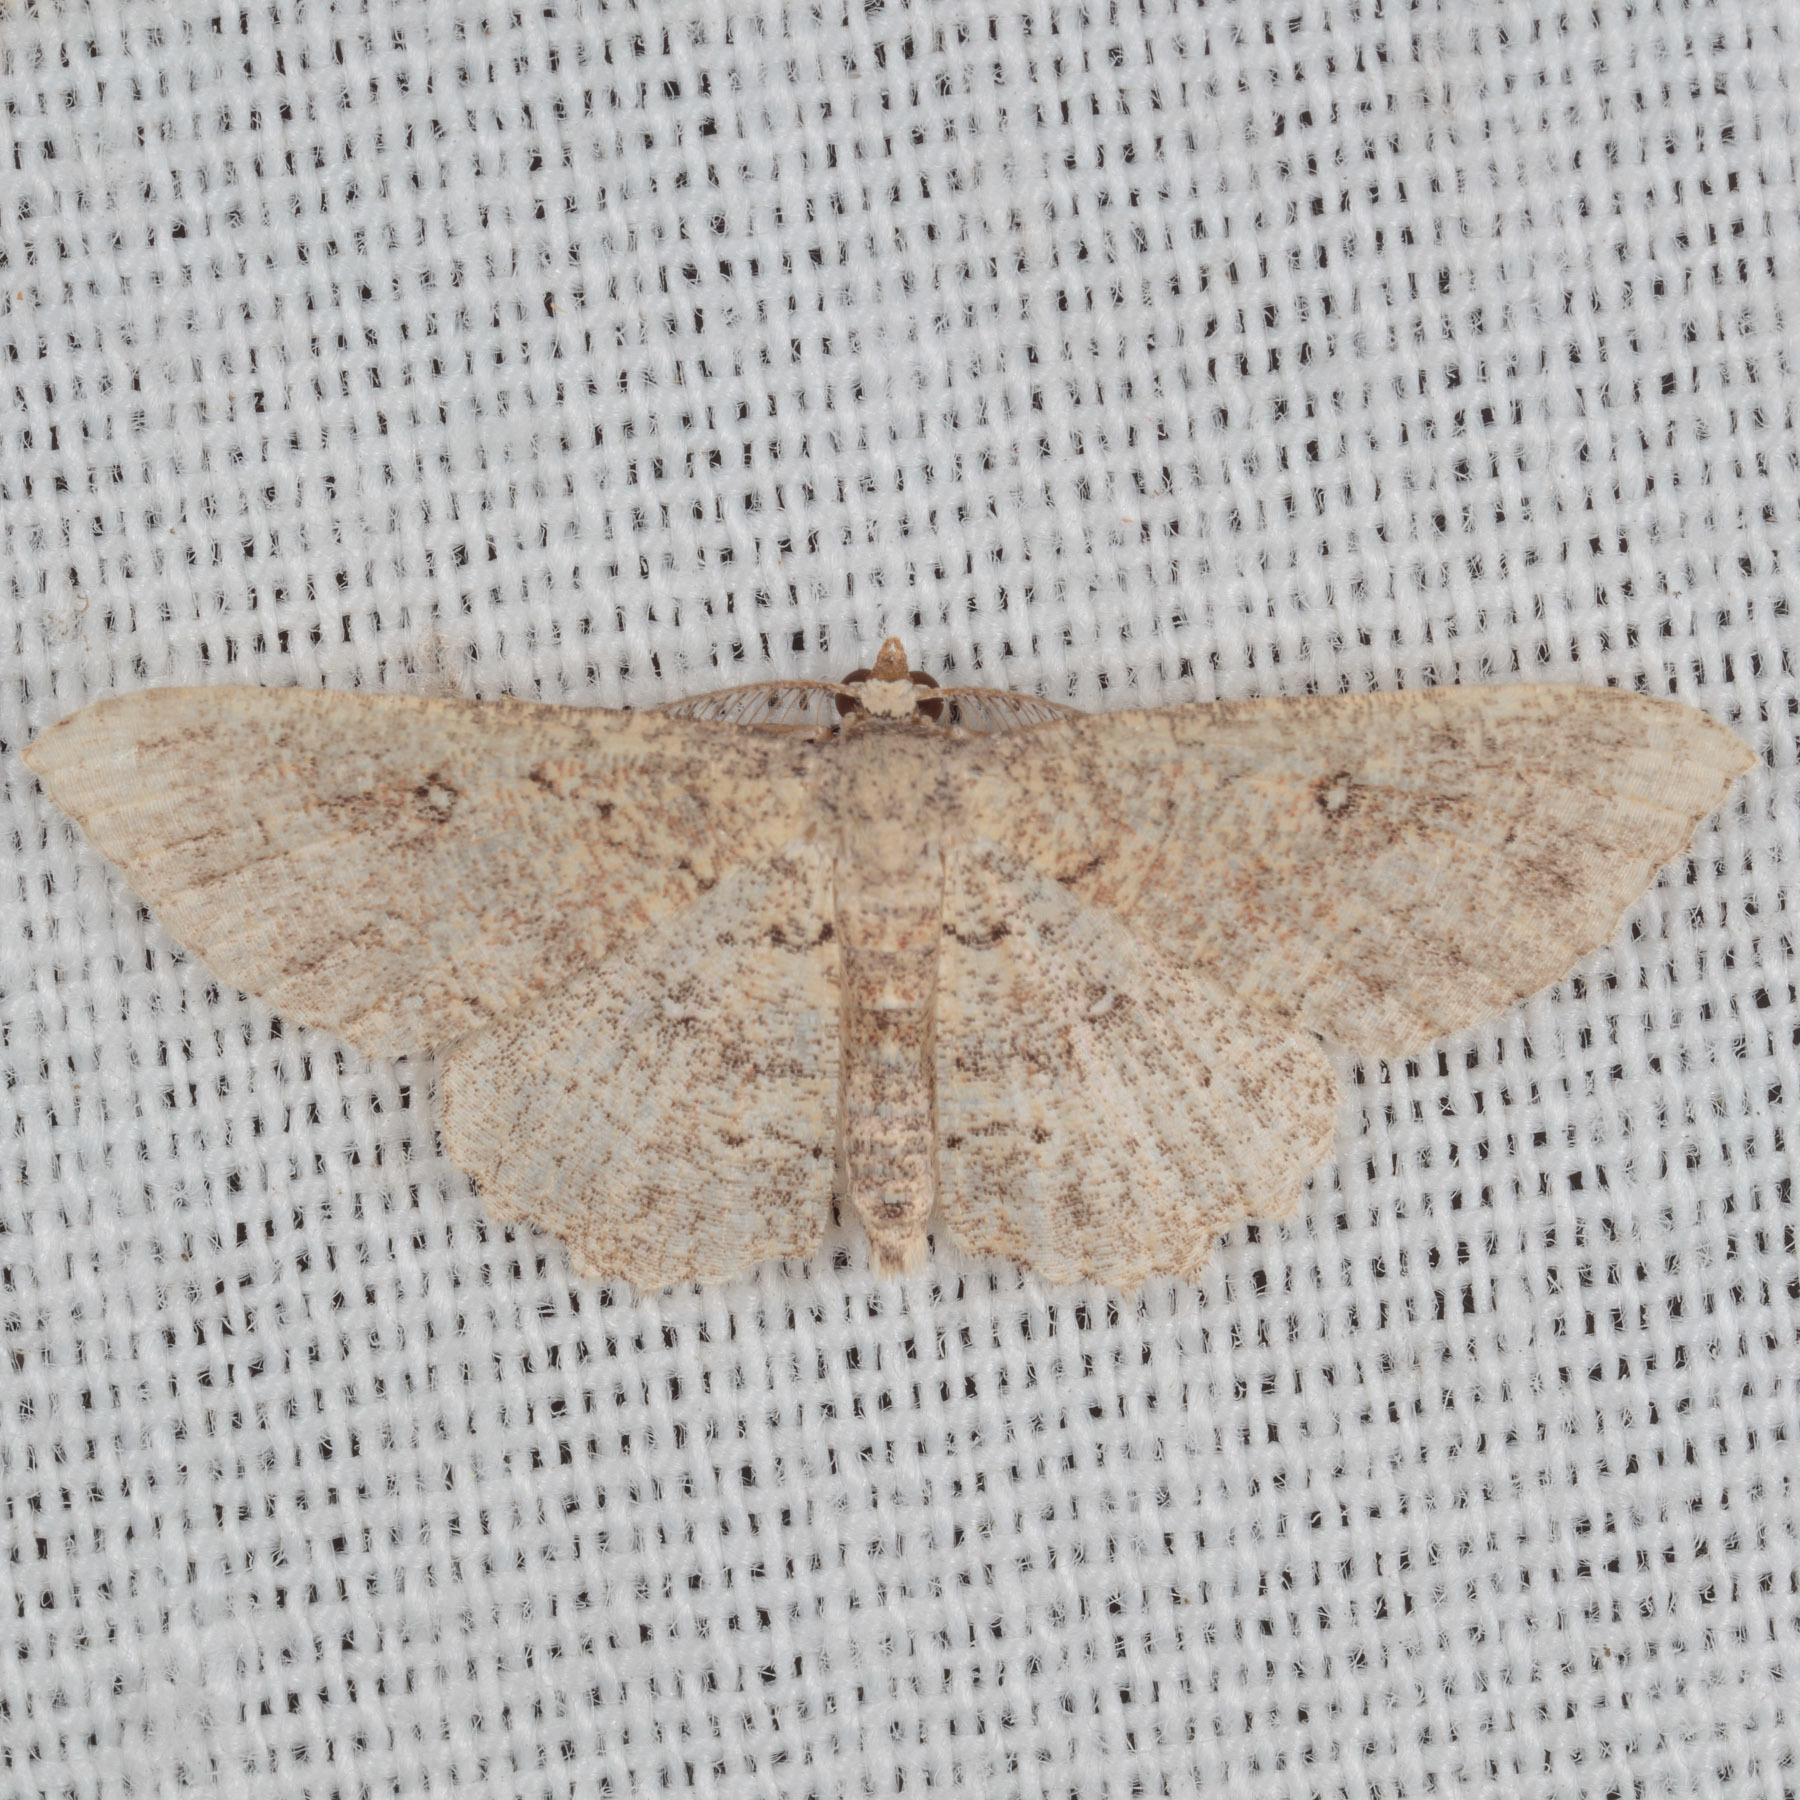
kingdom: Animalia
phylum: Arthropoda
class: Insecta
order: Lepidoptera
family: Geometridae
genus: Cyclophora
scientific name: Cyclophora nanaria
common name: Cankerworm
